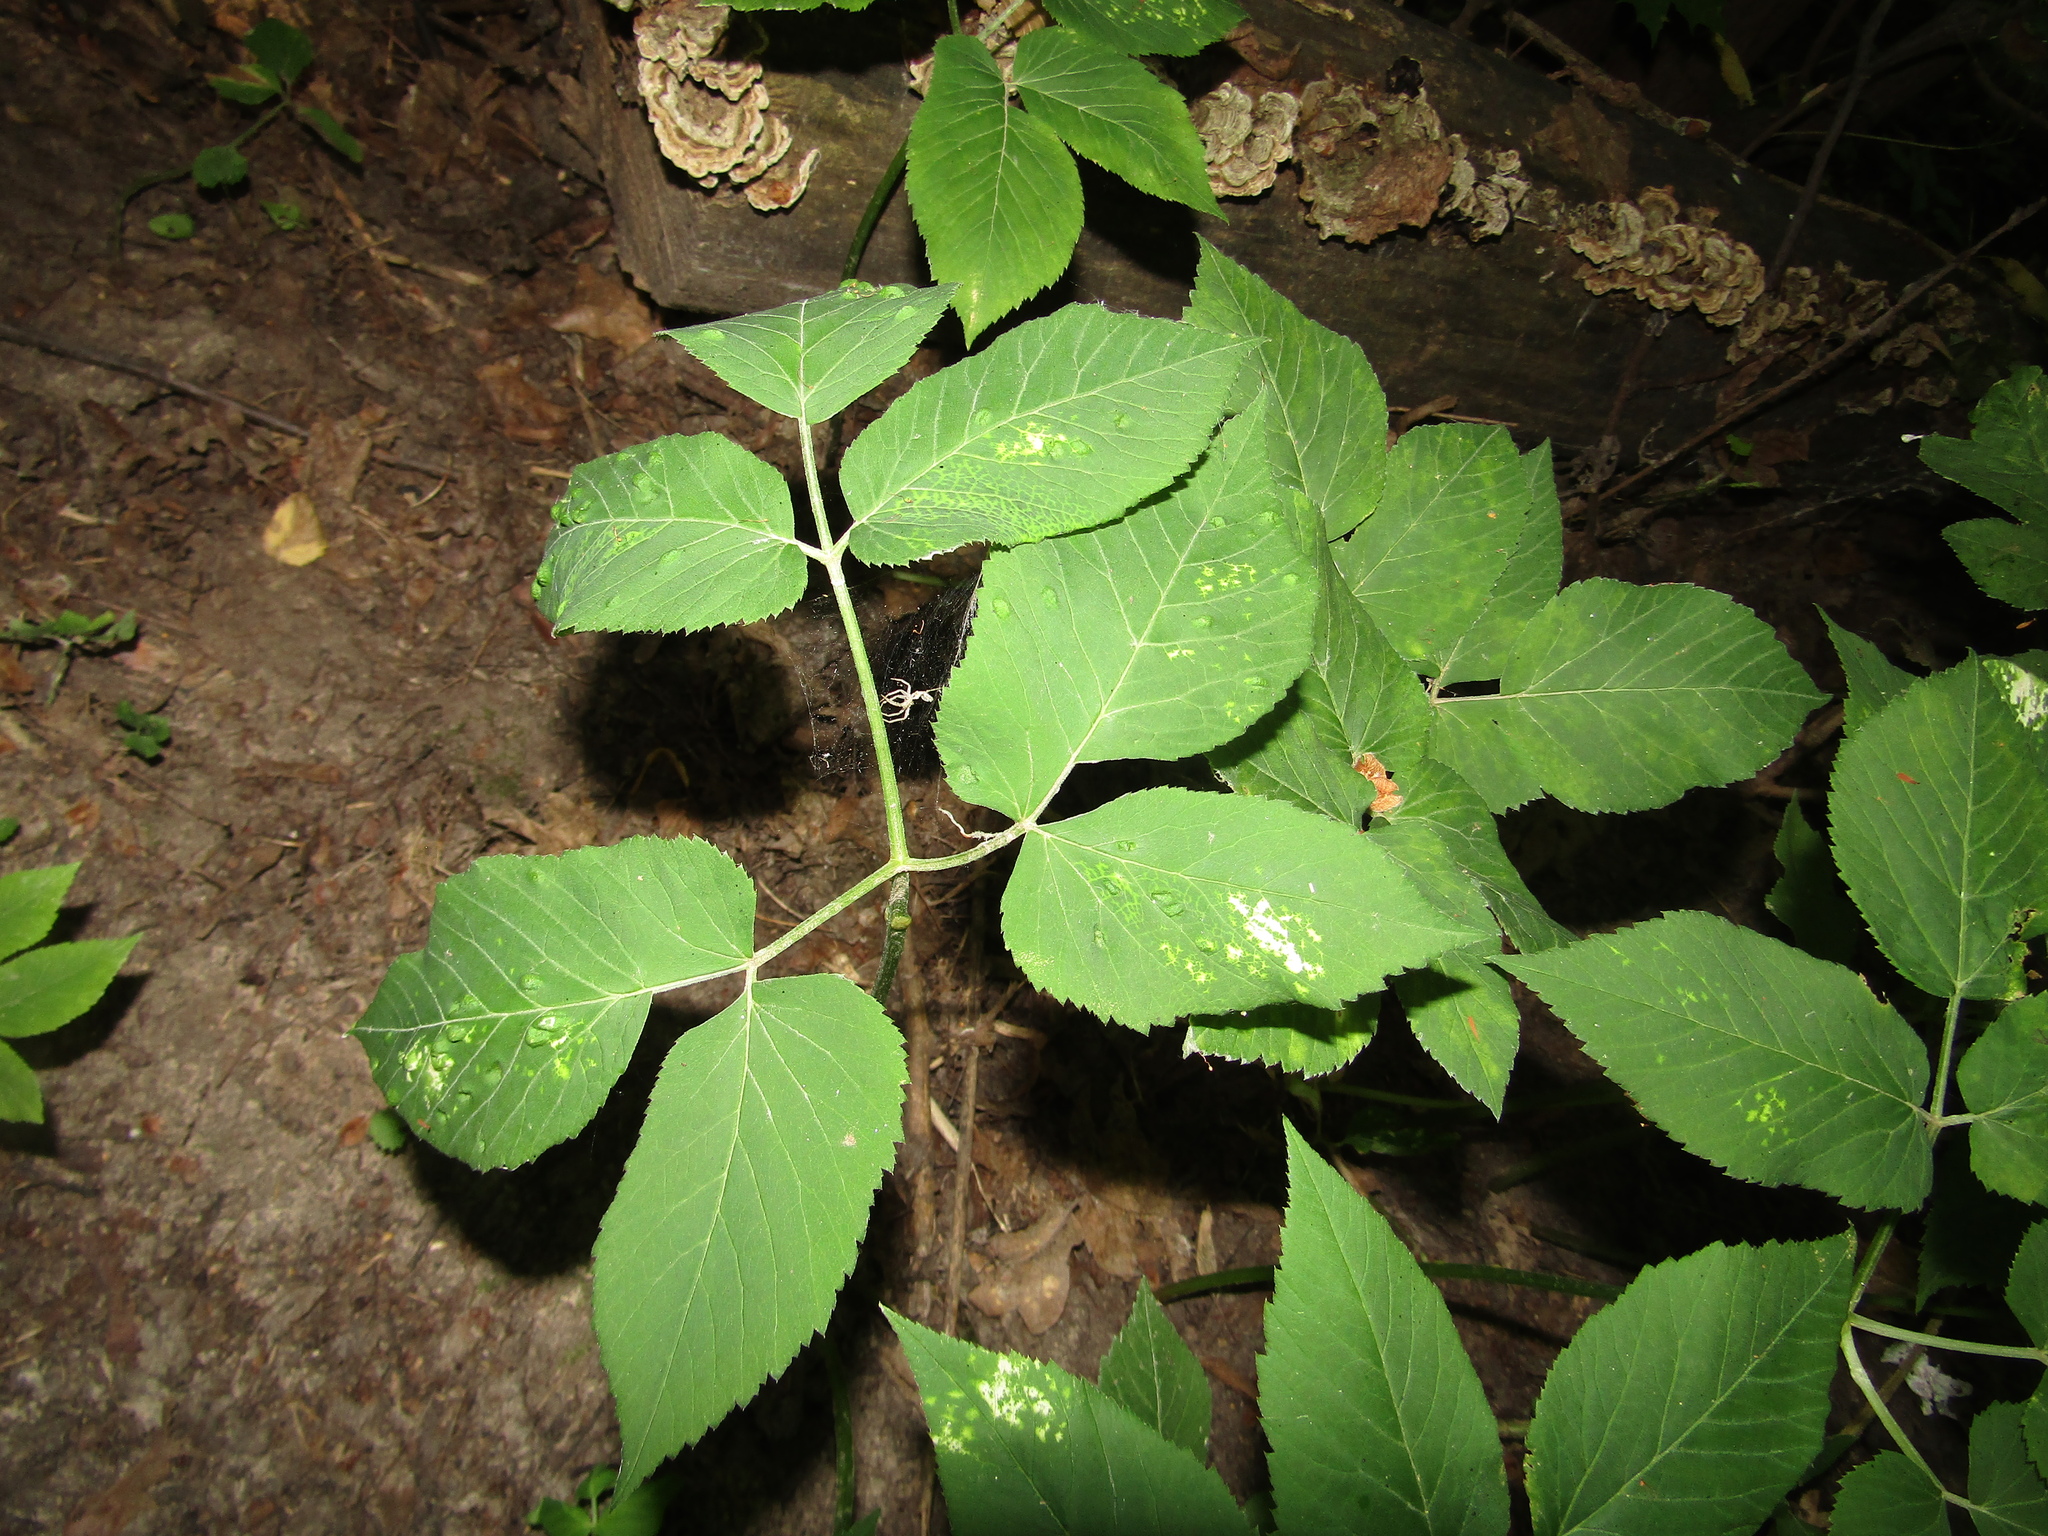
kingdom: Plantae
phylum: Tracheophyta
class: Magnoliopsida
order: Apiales
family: Apiaceae
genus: Aegopodium
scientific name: Aegopodium podagraria
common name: Ground-elder
